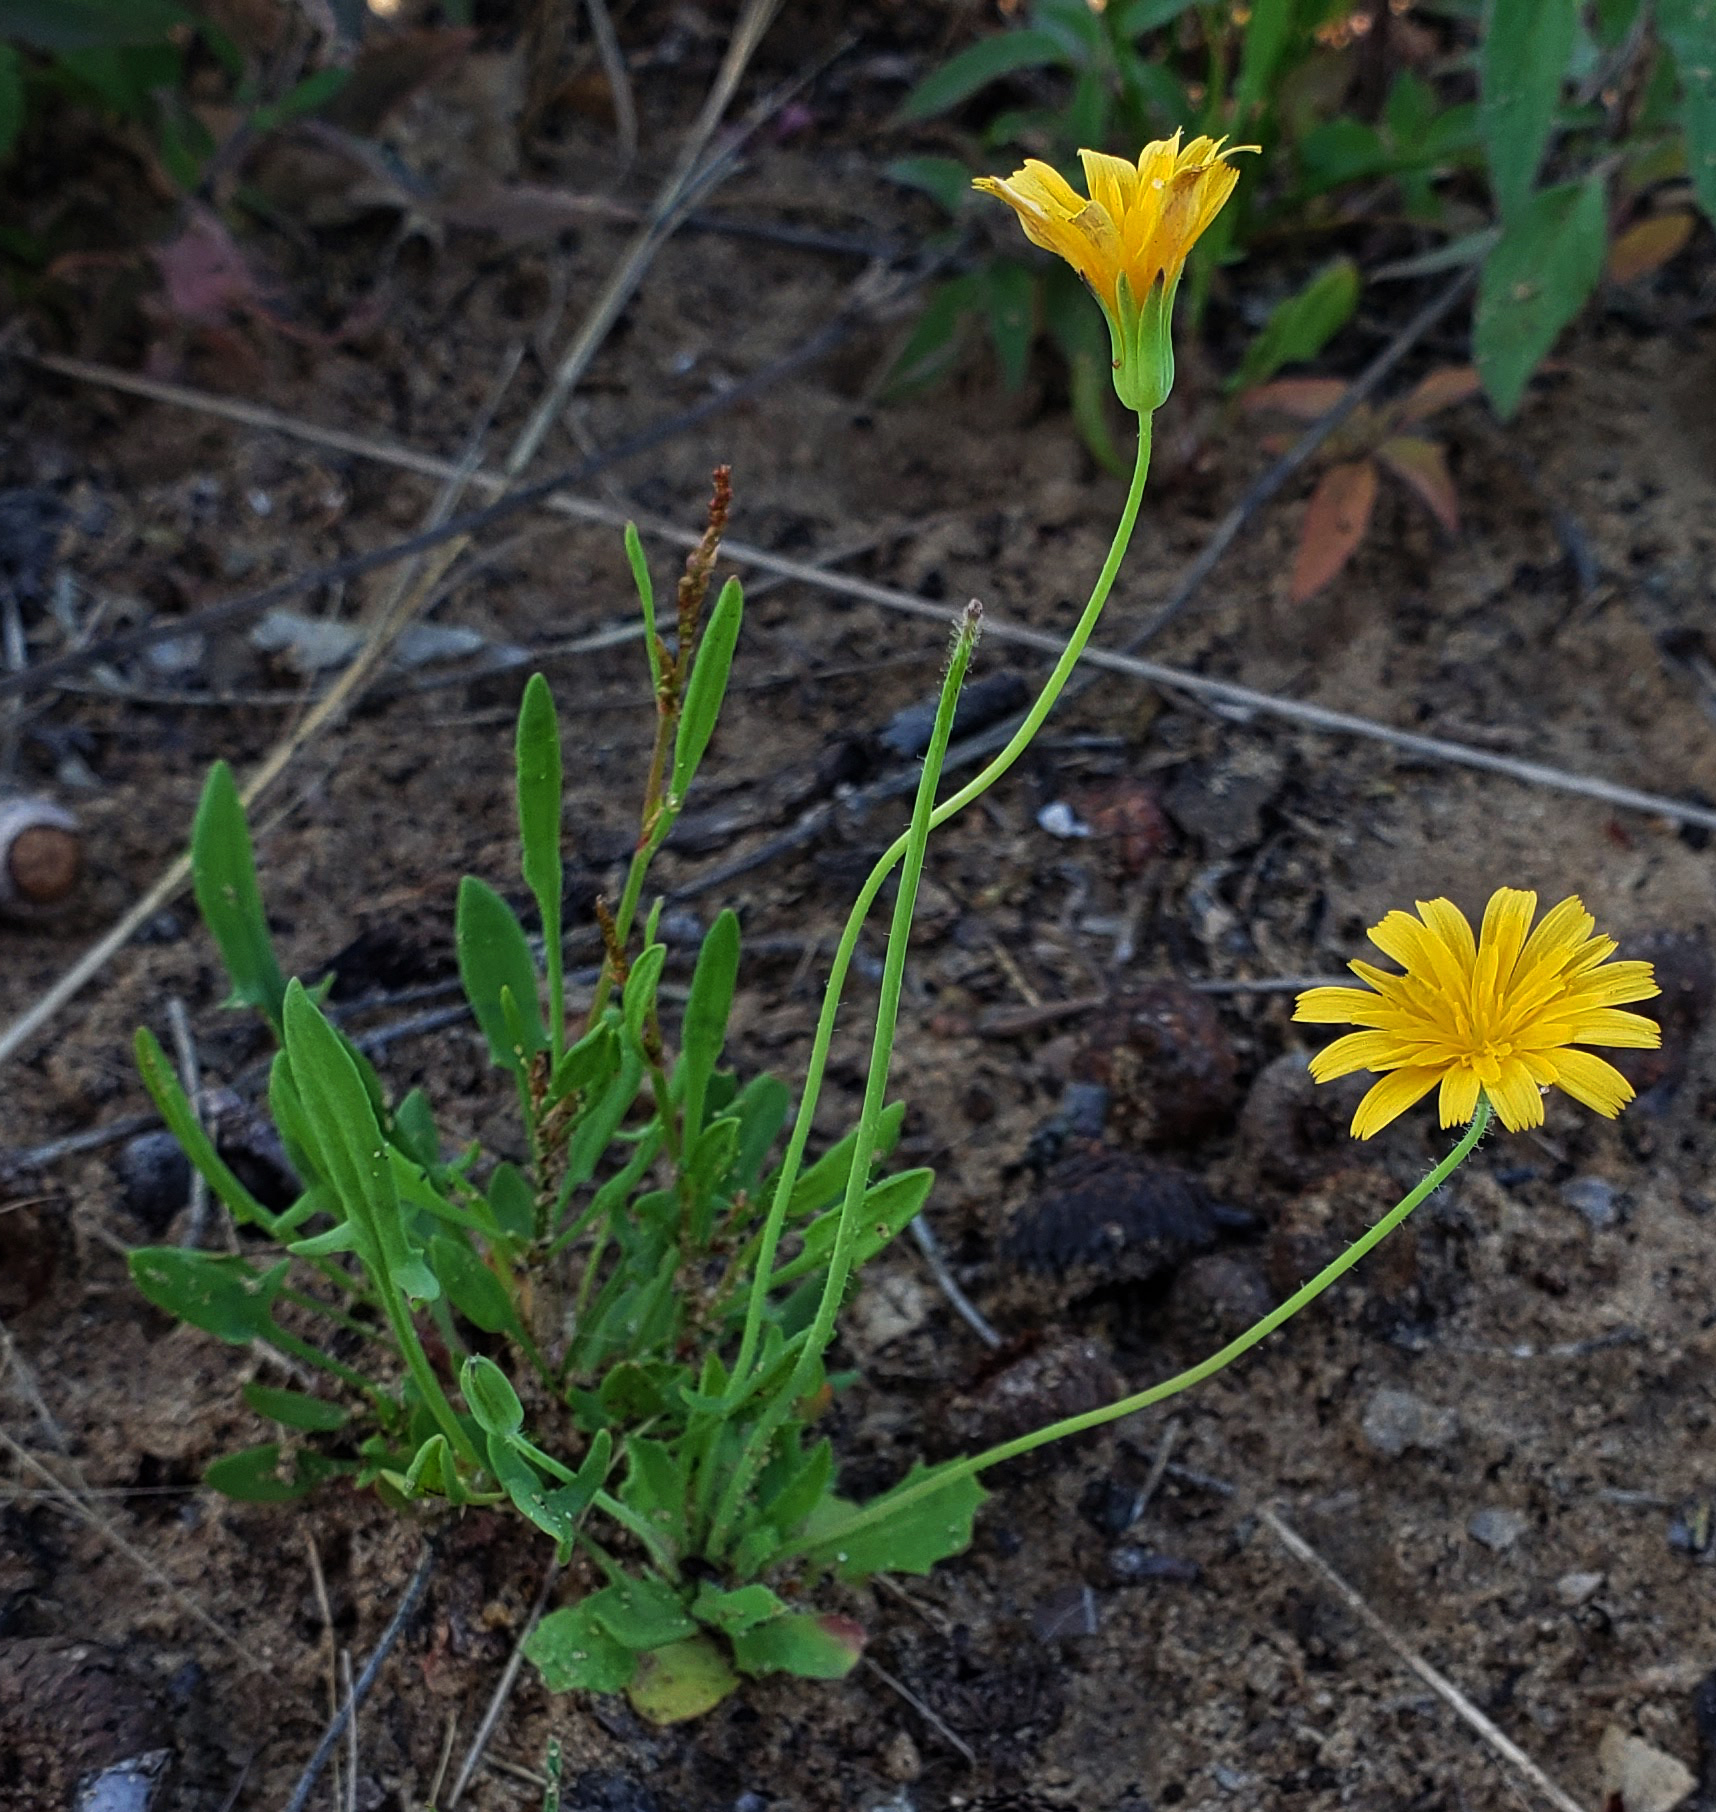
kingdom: Plantae
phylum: Tracheophyta
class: Magnoliopsida
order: Asterales
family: Asteraceae
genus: Krigia
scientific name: Krigia virginica
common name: Virginia dwarf-dandelion
